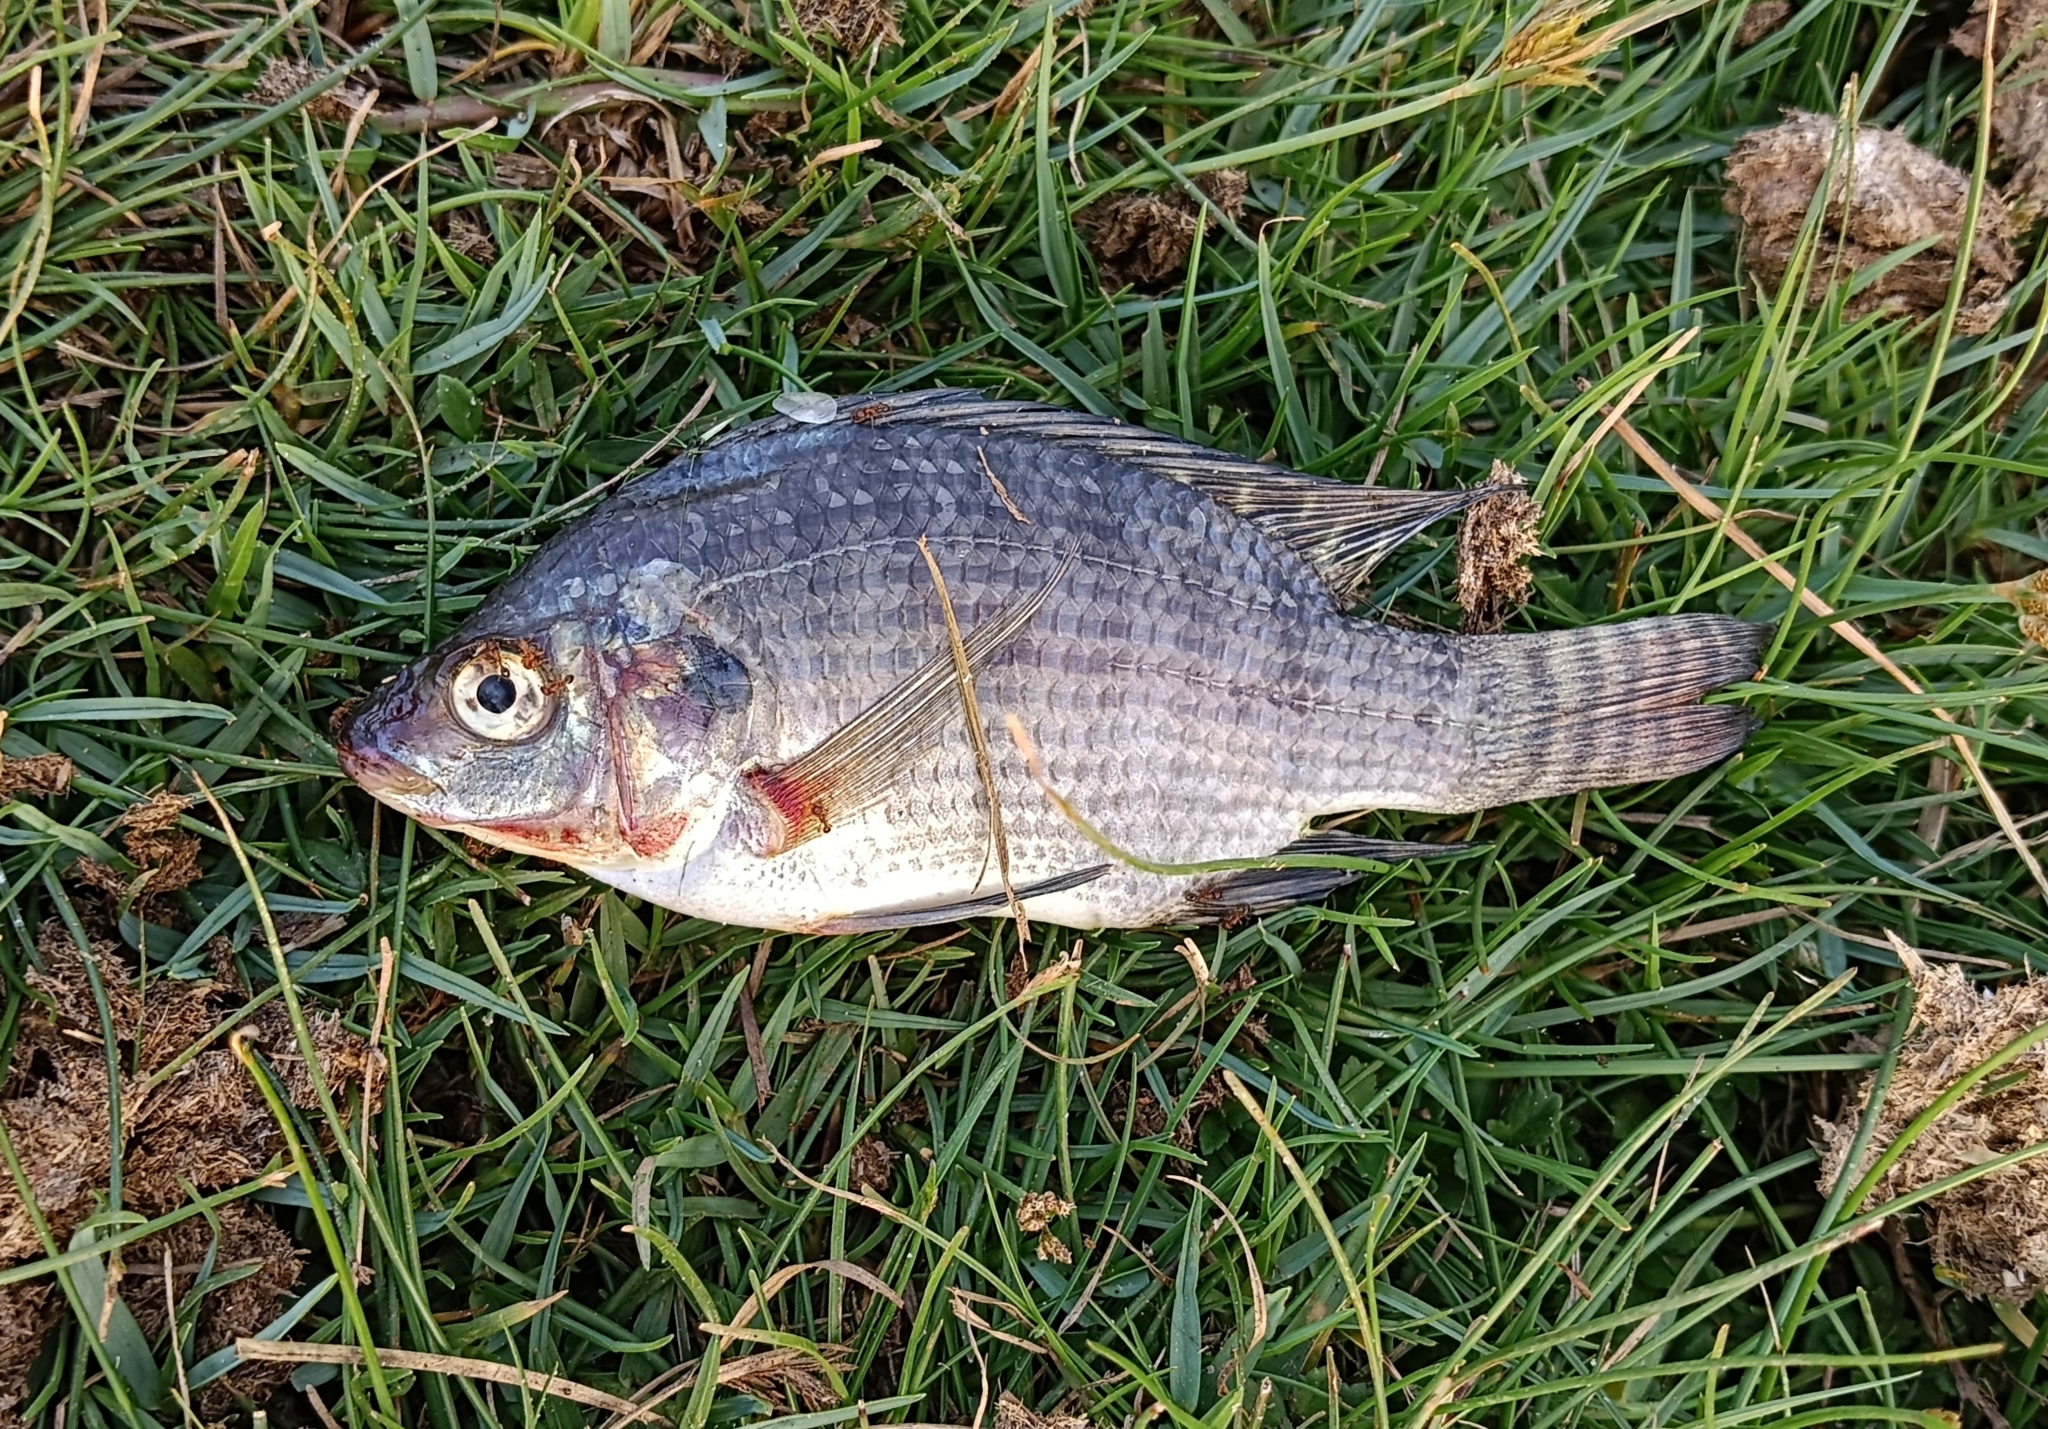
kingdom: Animalia
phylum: Chordata
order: Perciformes
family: Cichlidae
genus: Oreochromis
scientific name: Oreochromis niloticus
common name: Nile tilapia
